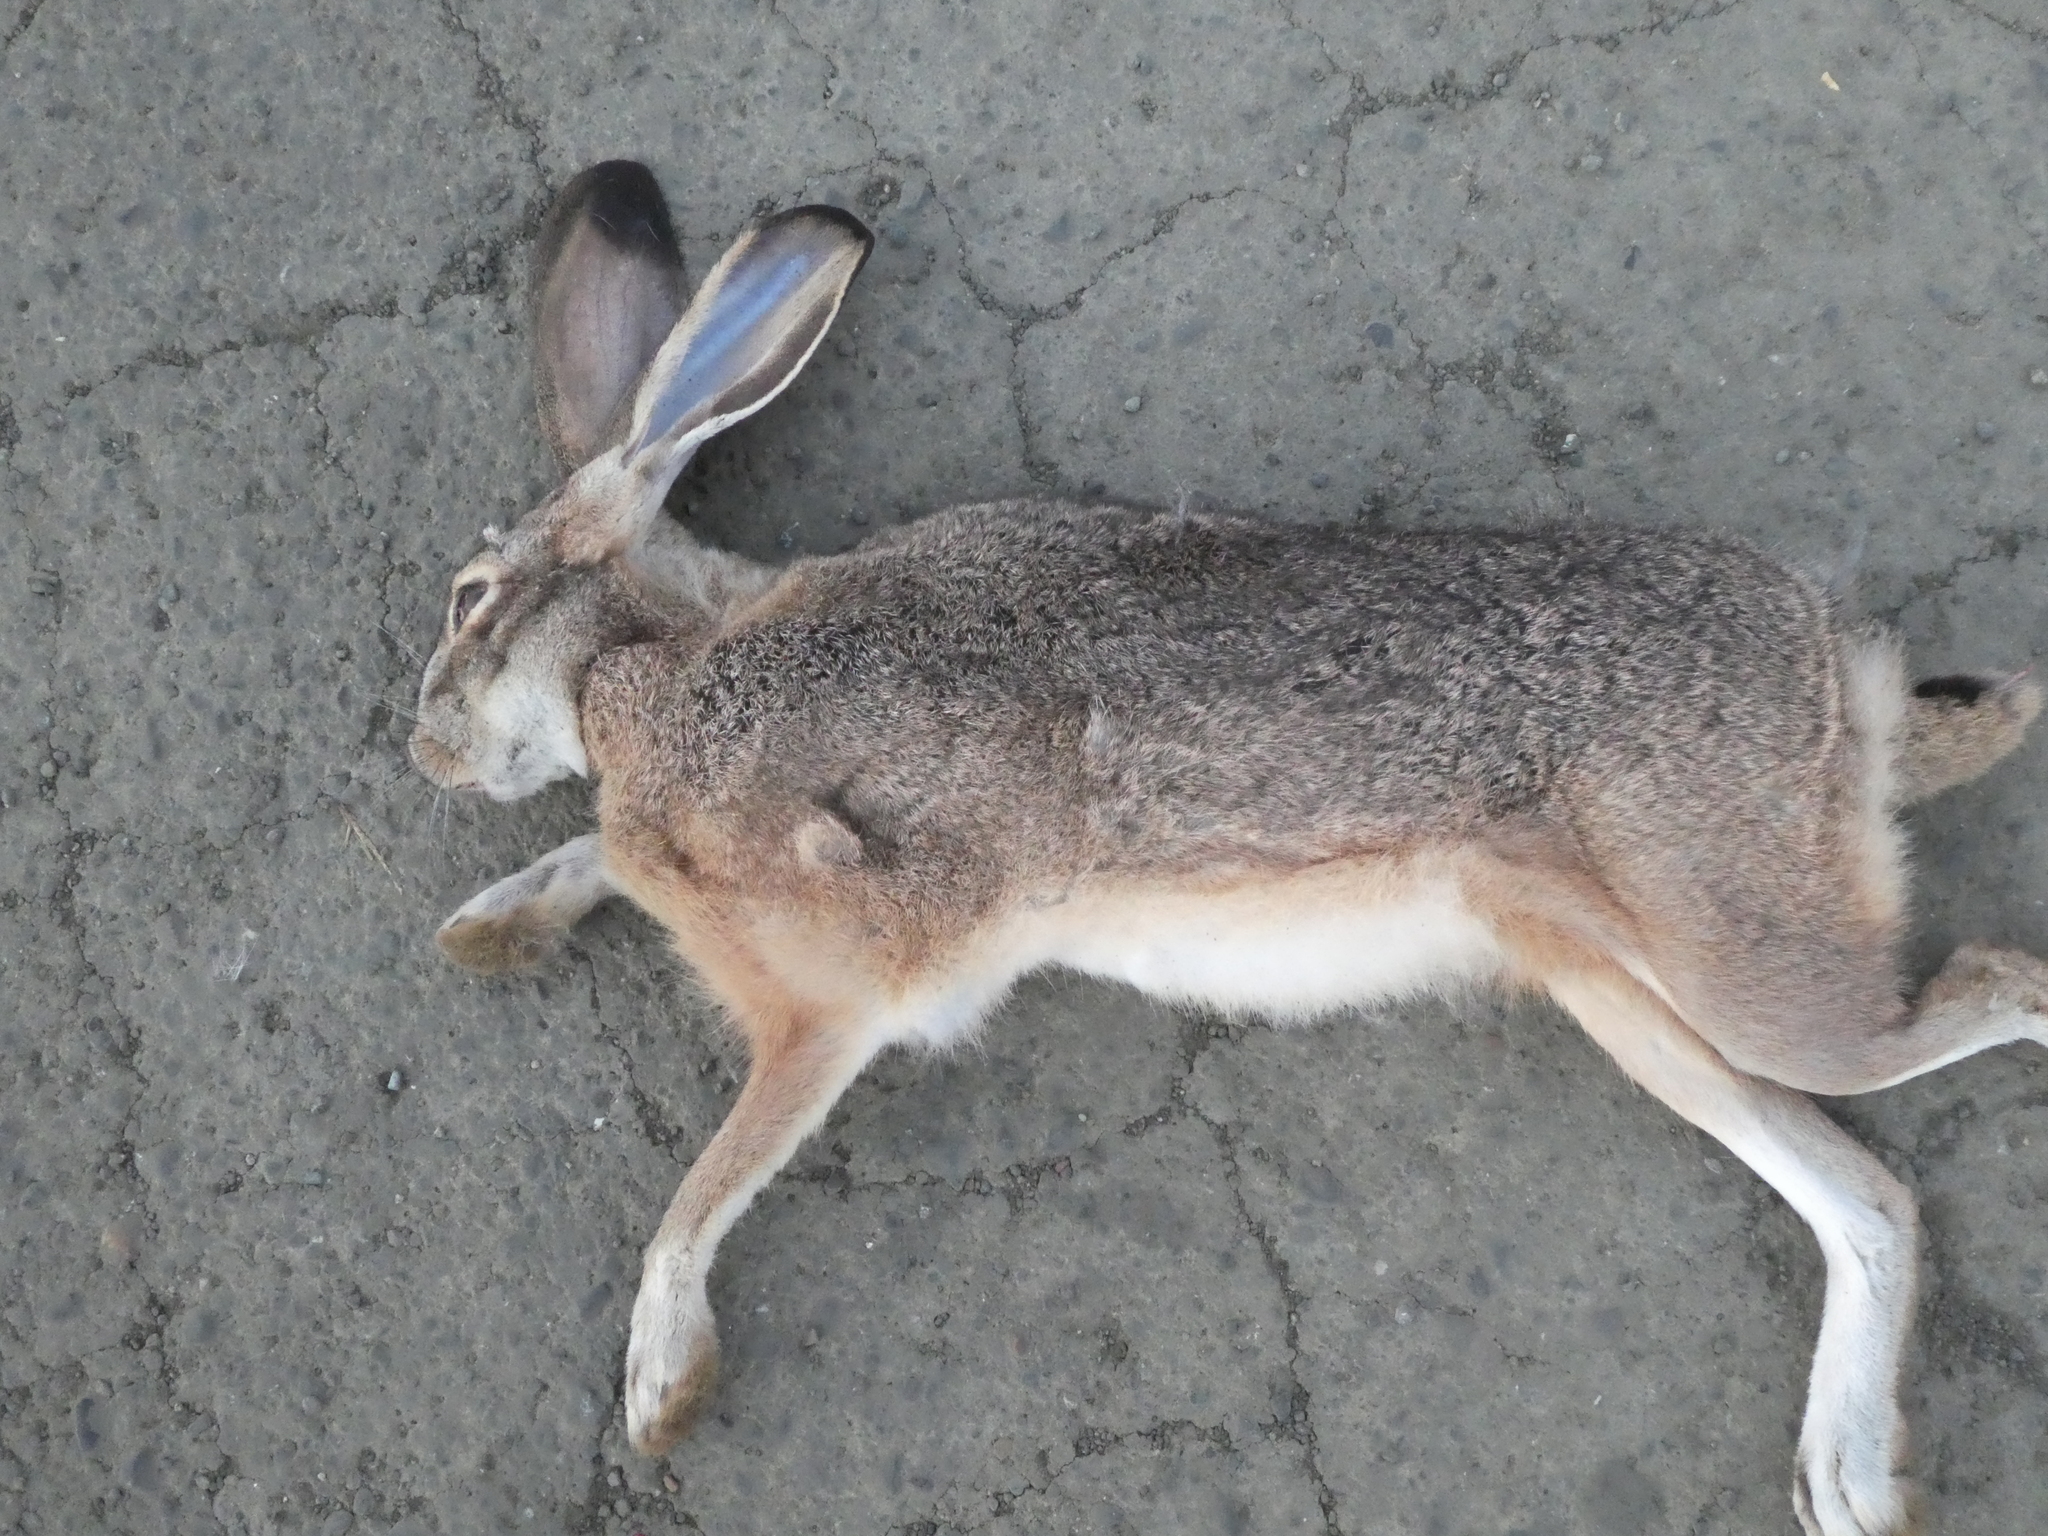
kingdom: Animalia
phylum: Chordata
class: Mammalia
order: Lagomorpha
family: Leporidae
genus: Lepus
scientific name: Lepus californicus
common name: Black-tailed jackrabbit
